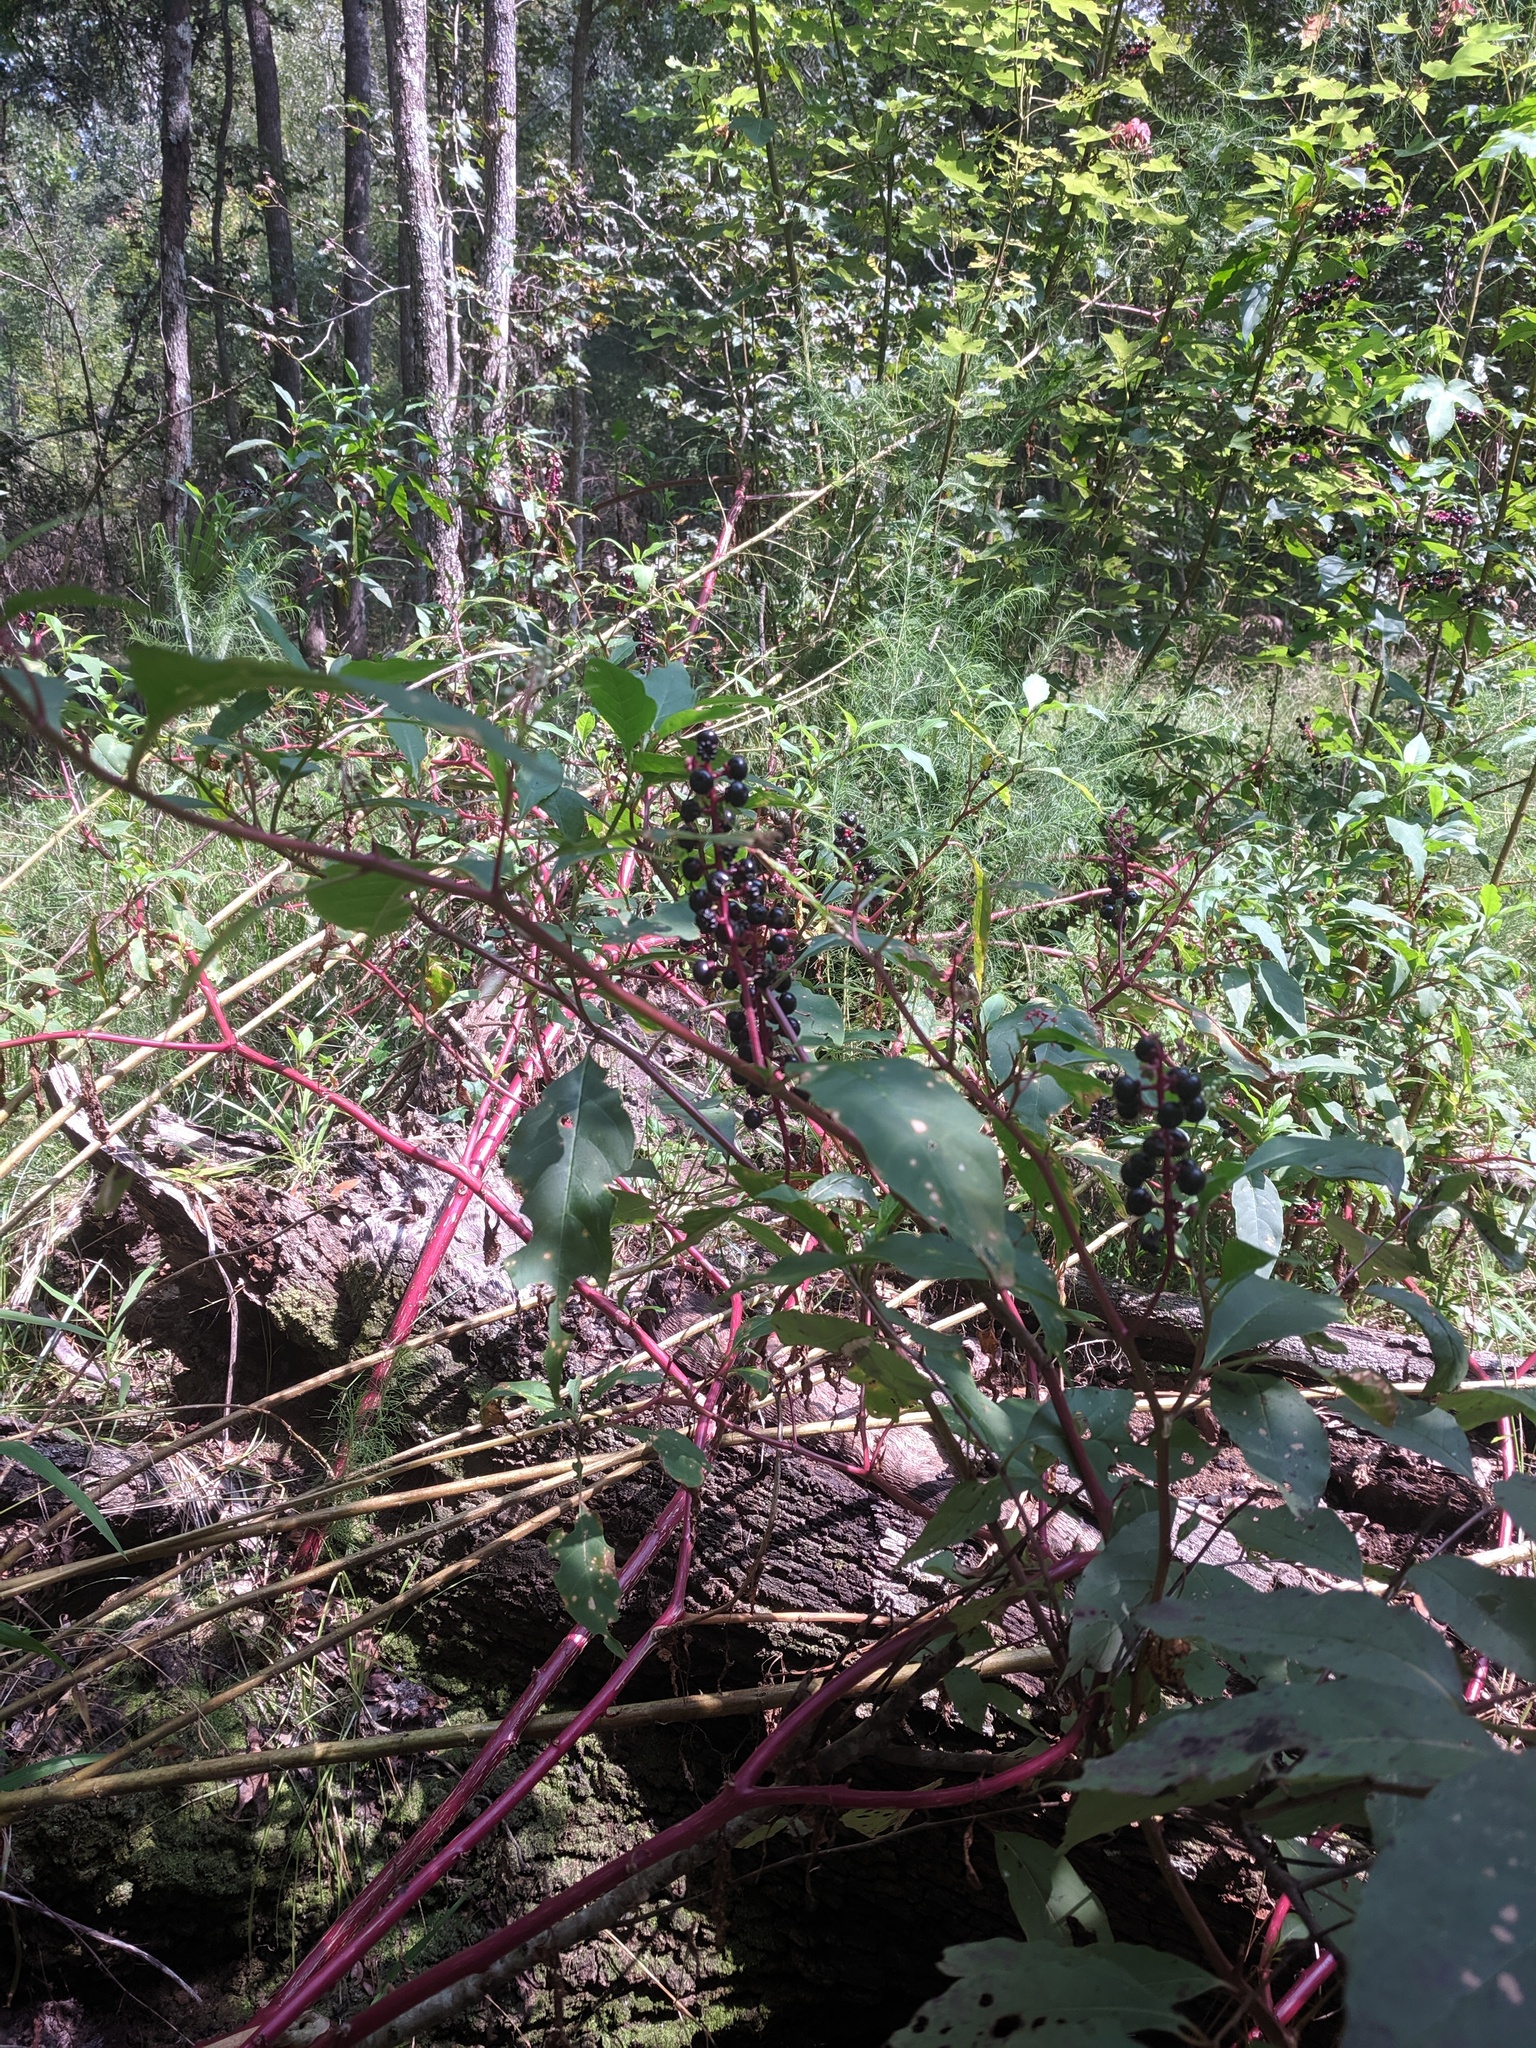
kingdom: Plantae
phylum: Tracheophyta
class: Magnoliopsida
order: Caryophyllales
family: Phytolaccaceae
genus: Phytolacca
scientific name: Phytolacca americana
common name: American pokeweed
